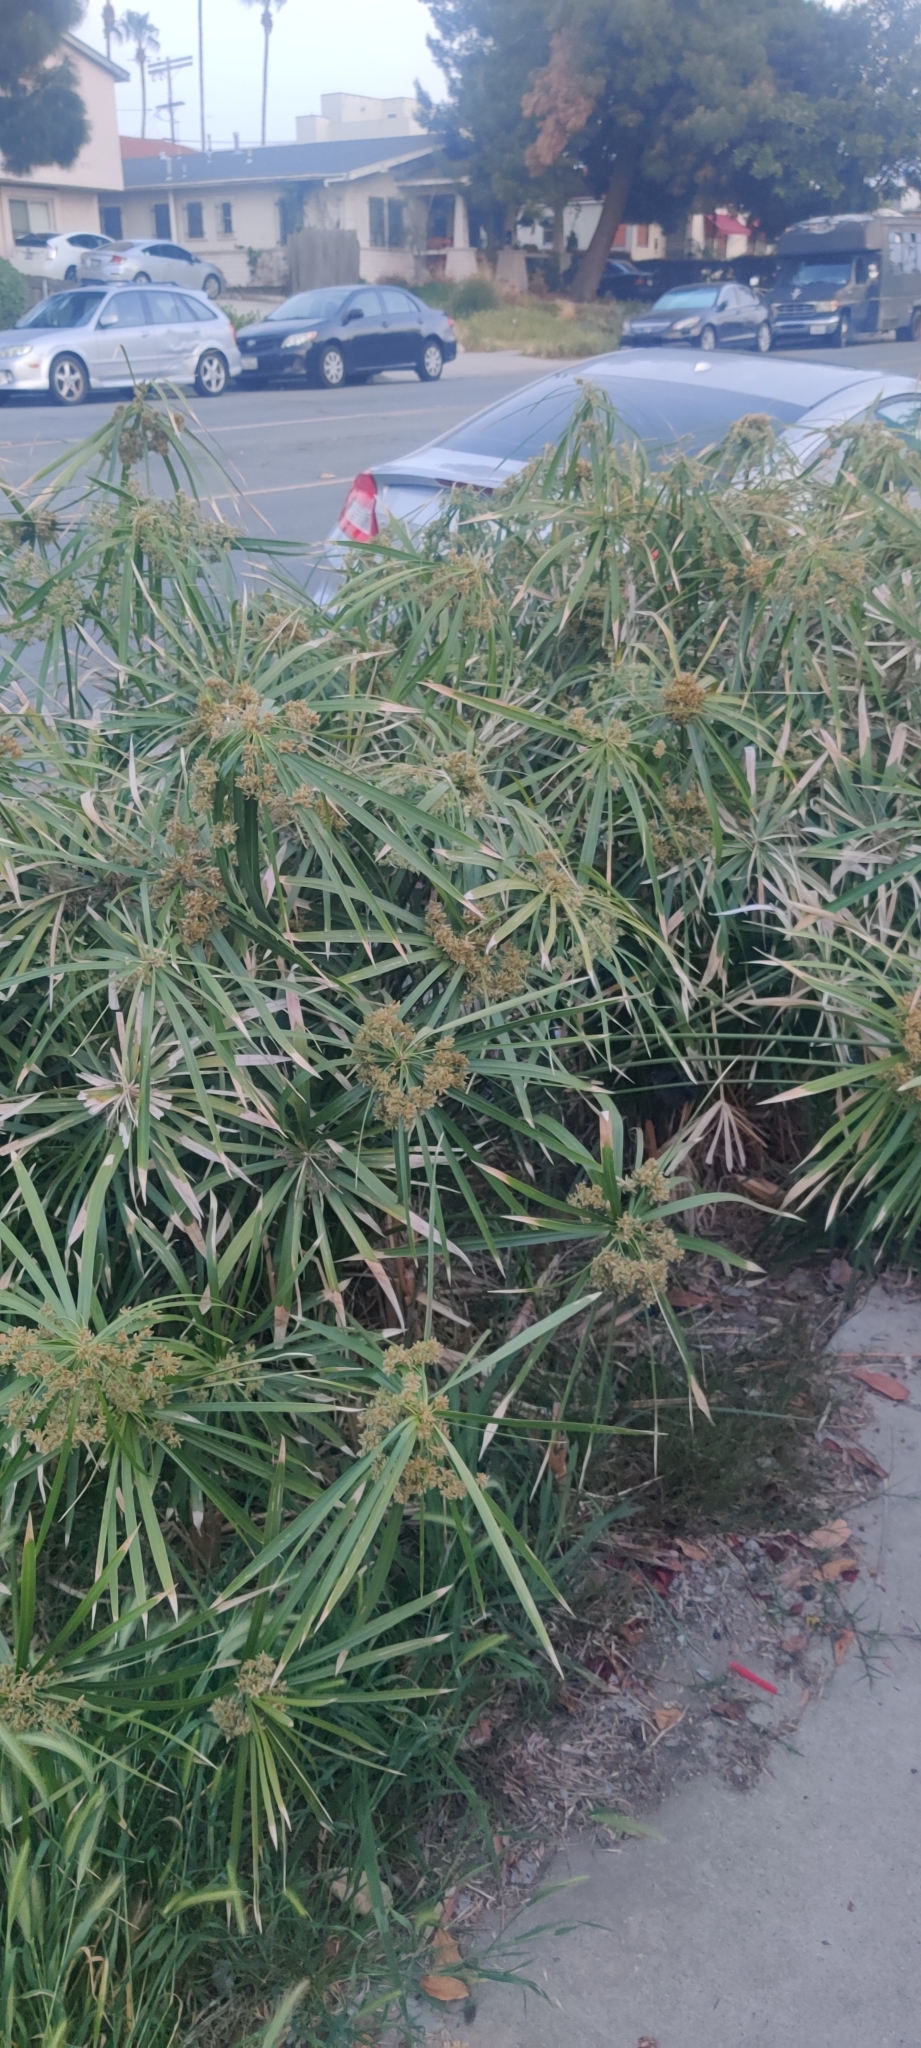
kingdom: Plantae
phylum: Tracheophyta
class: Liliopsida
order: Poales
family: Cyperaceae
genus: Cyperus
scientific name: Cyperus alternifolius
